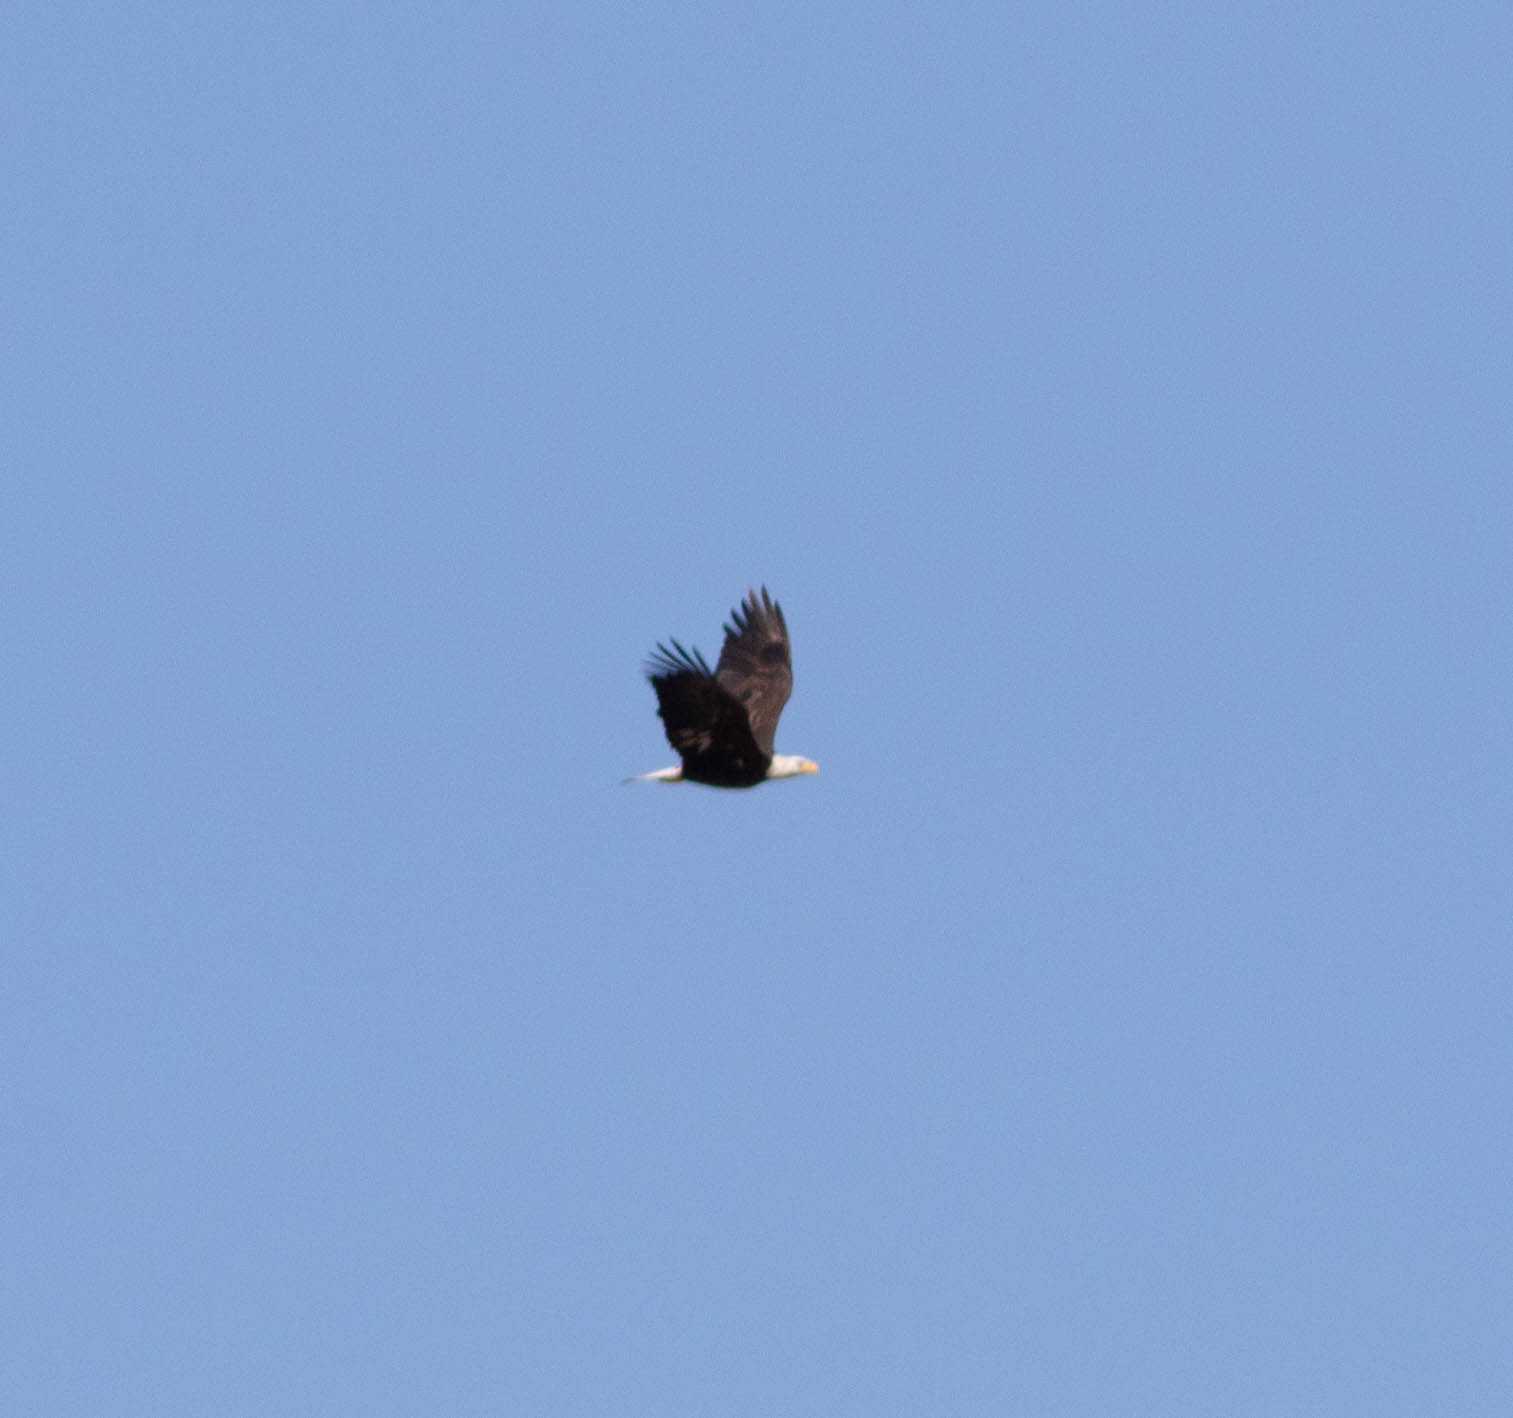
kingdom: Animalia
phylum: Chordata
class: Aves
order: Accipitriformes
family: Accipitridae
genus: Haliaeetus
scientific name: Haliaeetus leucocephalus
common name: Bald eagle
